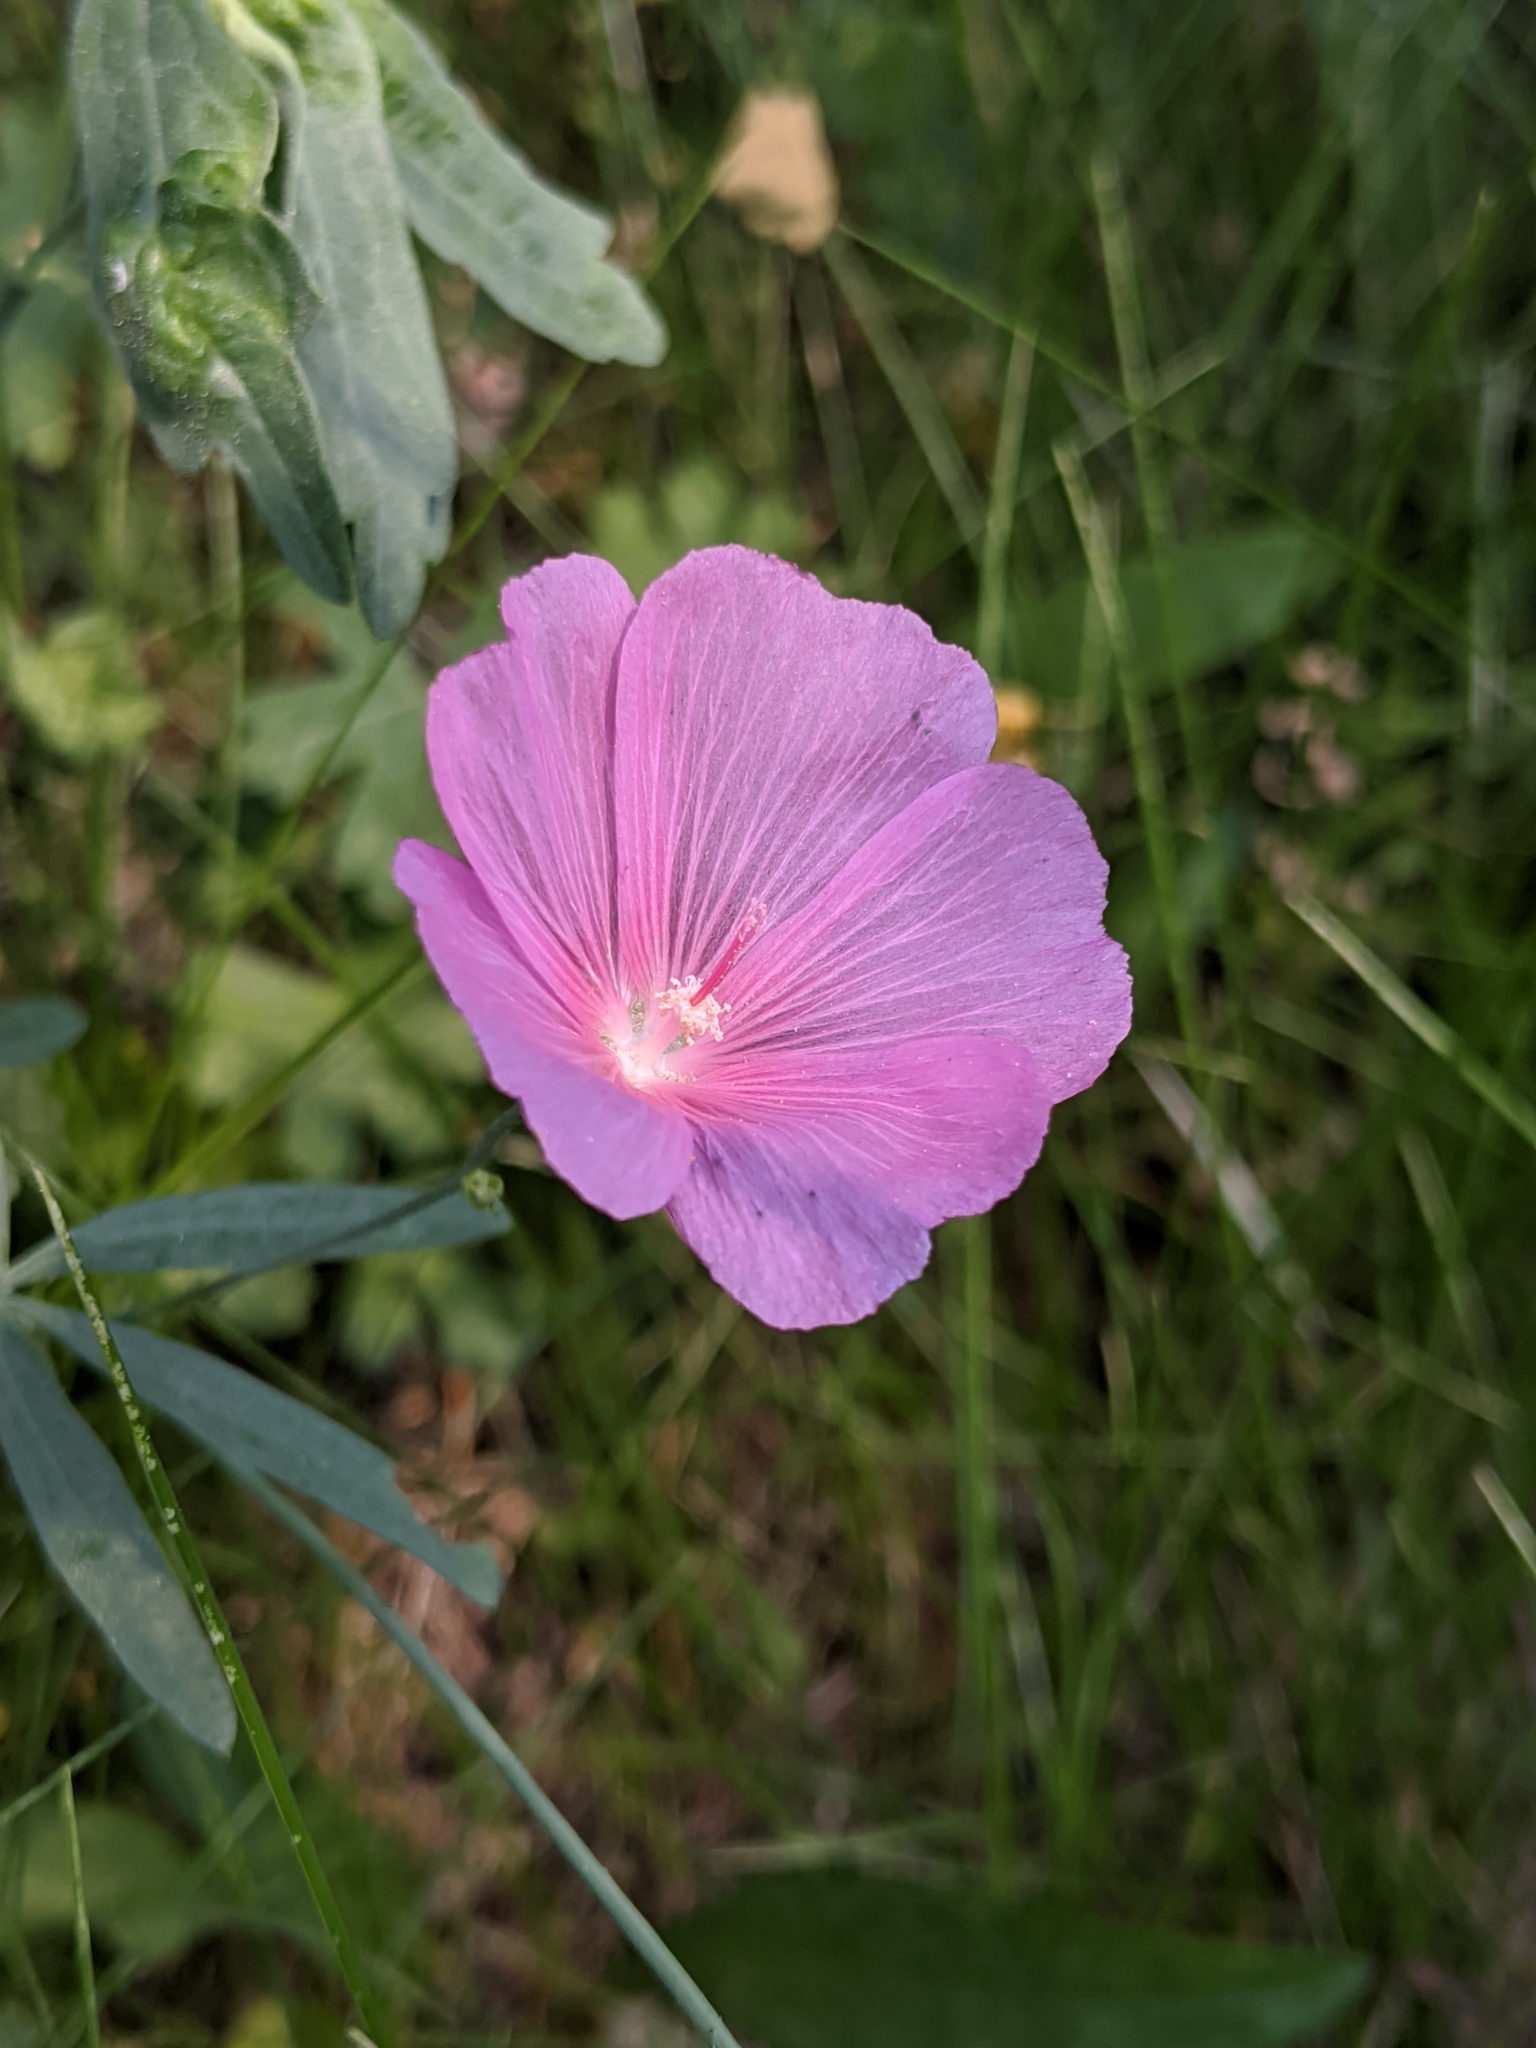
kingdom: Plantae
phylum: Tracheophyta
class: Magnoliopsida
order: Malvales
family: Malvaceae
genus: Sidalcea
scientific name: Sidalcea glaucescens
